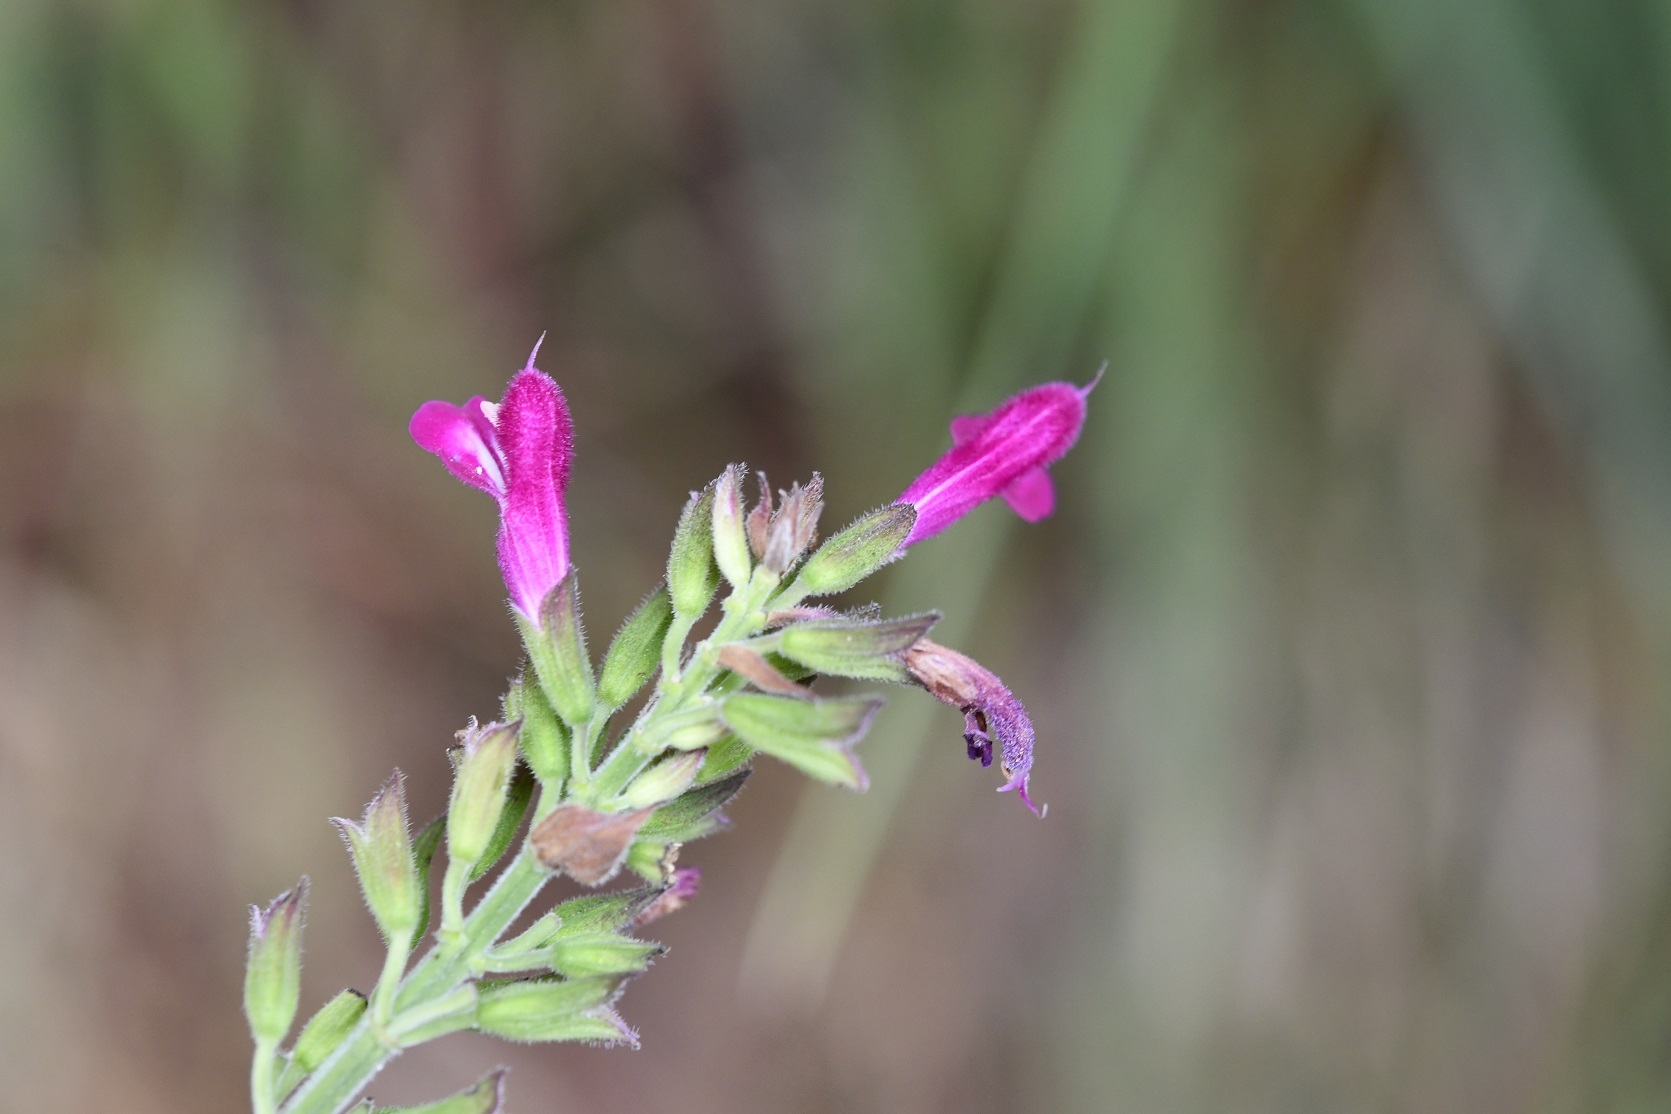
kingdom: Plantae
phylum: Tracheophyta
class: Magnoliopsida
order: Lamiales
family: Lamiaceae
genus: Salvia
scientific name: Salvia chiapensis
